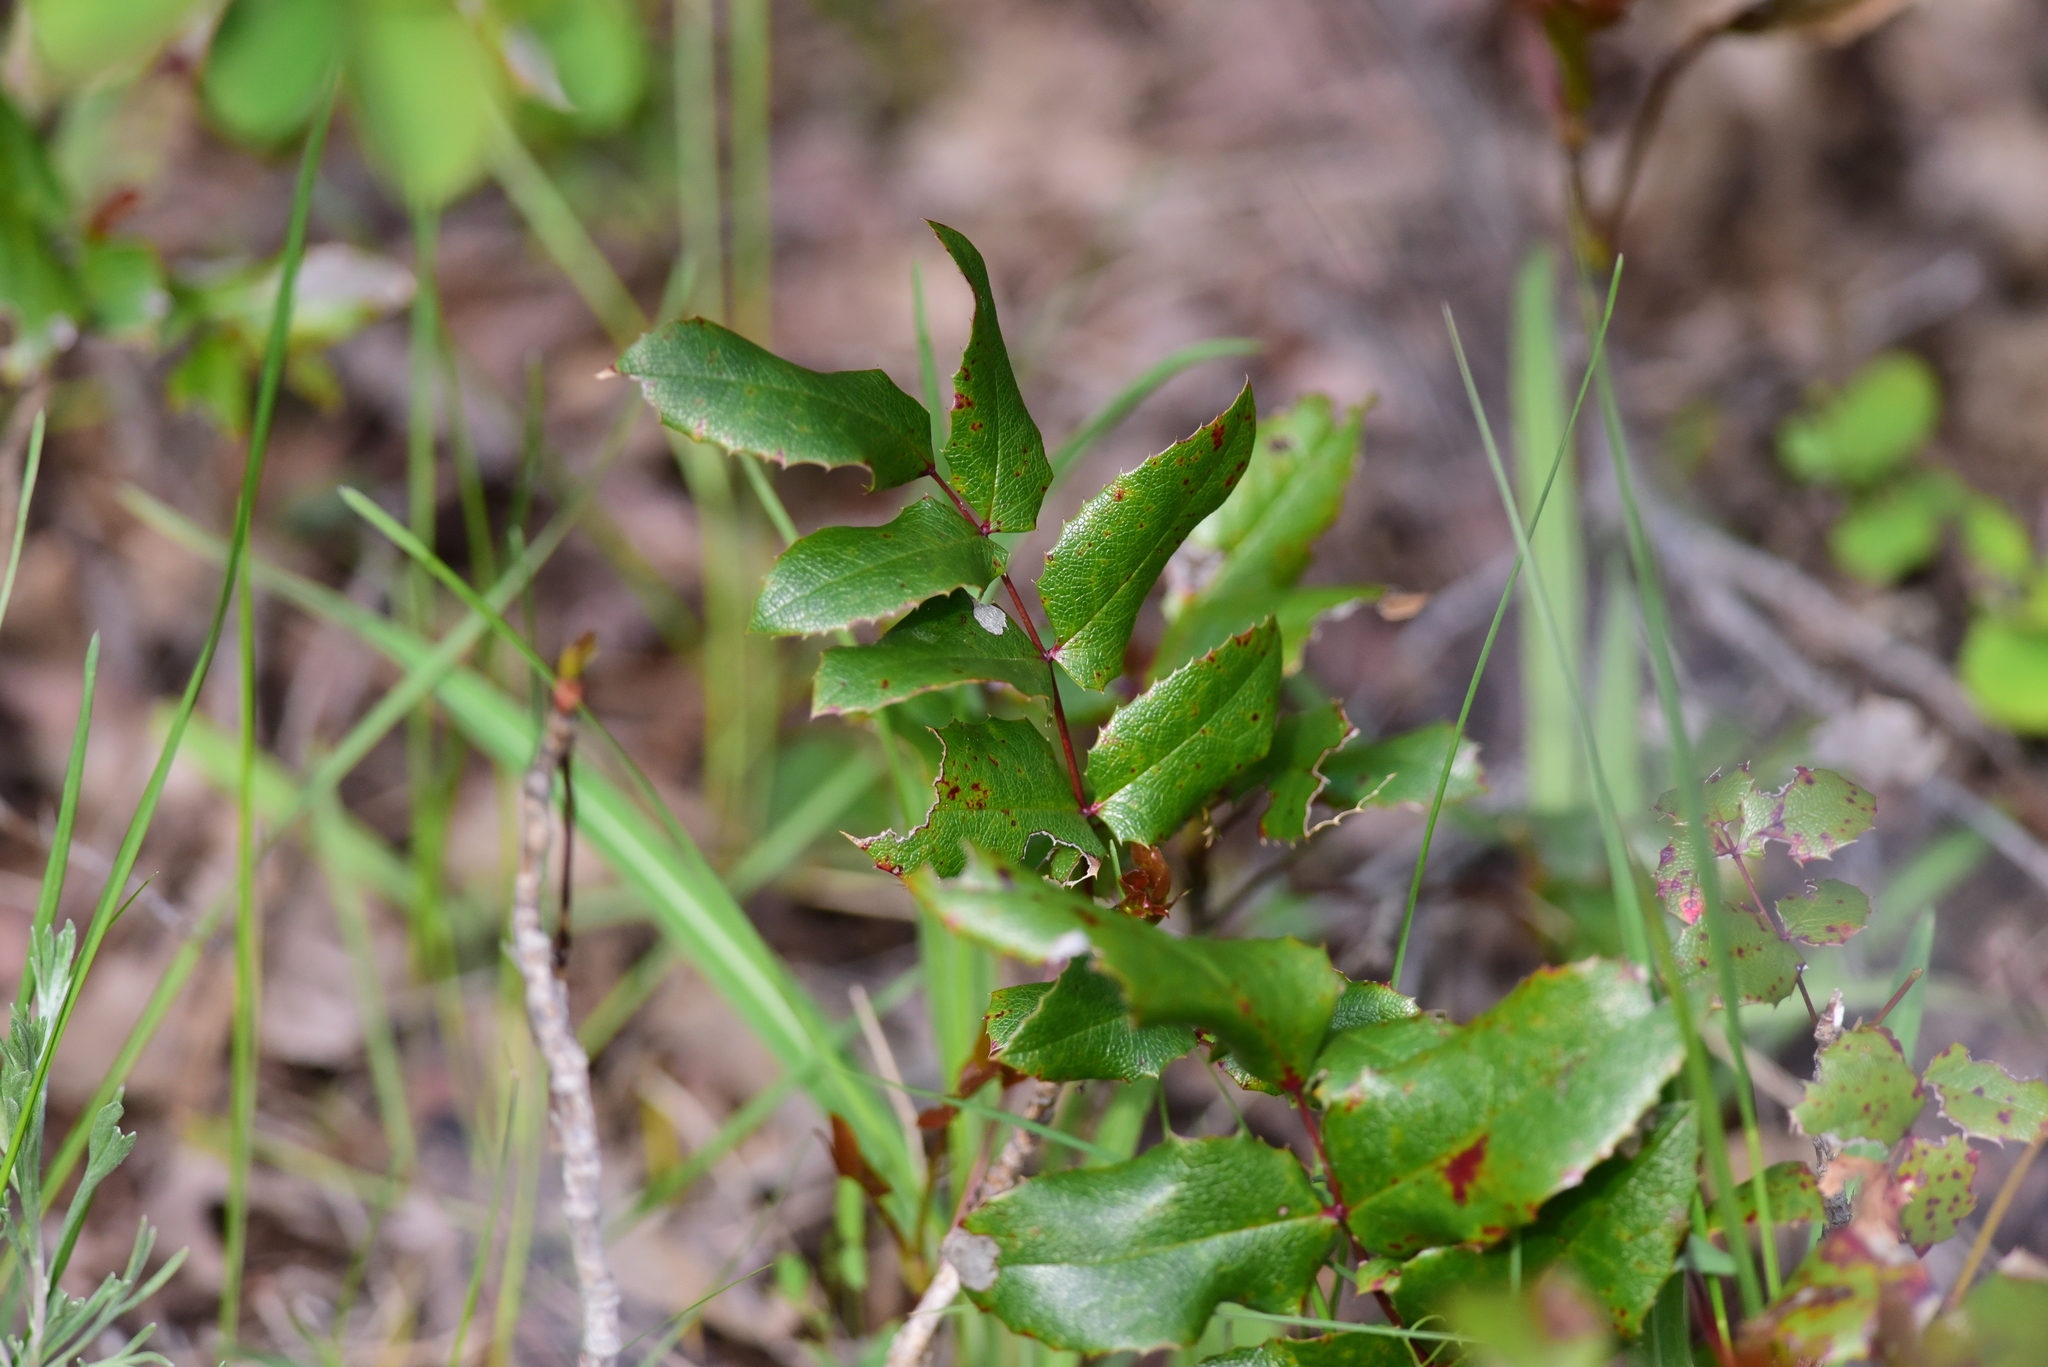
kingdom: Plantae
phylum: Tracheophyta
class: Magnoliopsida
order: Ranunculales
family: Berberidaceae
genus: Mahonia
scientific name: Mahonia aquifolium
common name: Oregon-grape
